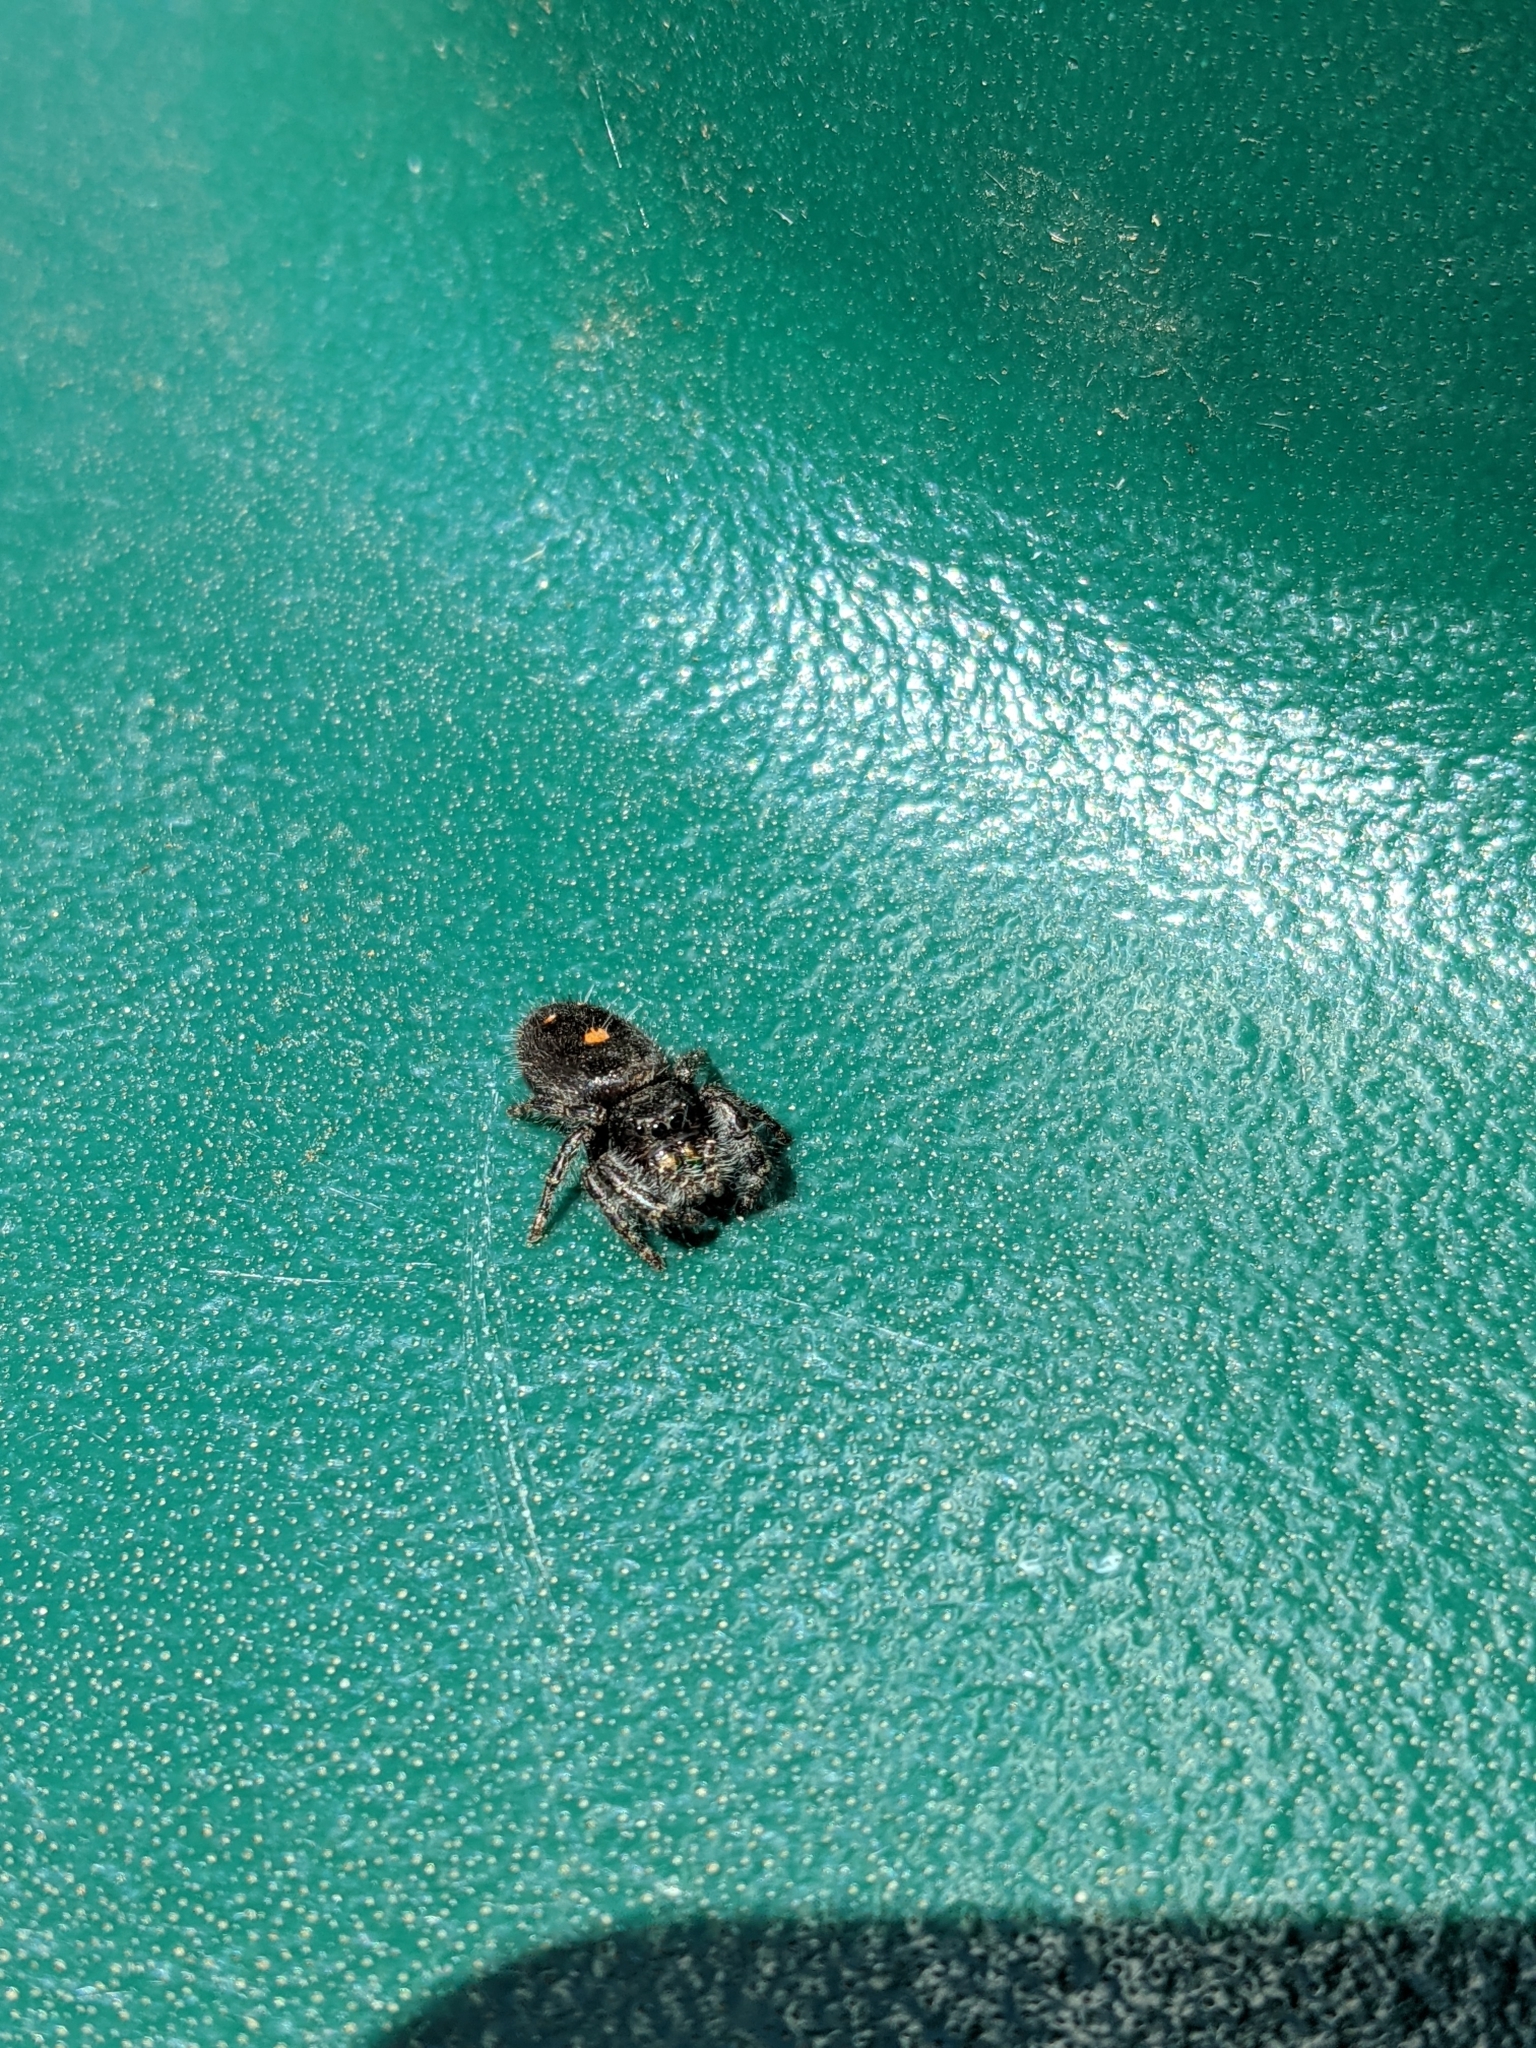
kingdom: Animalia
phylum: Arthropoda
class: Arachnida
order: Araneae
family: Salticidae
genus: Phidippus
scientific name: Phidippus audax
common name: Bold jumper
